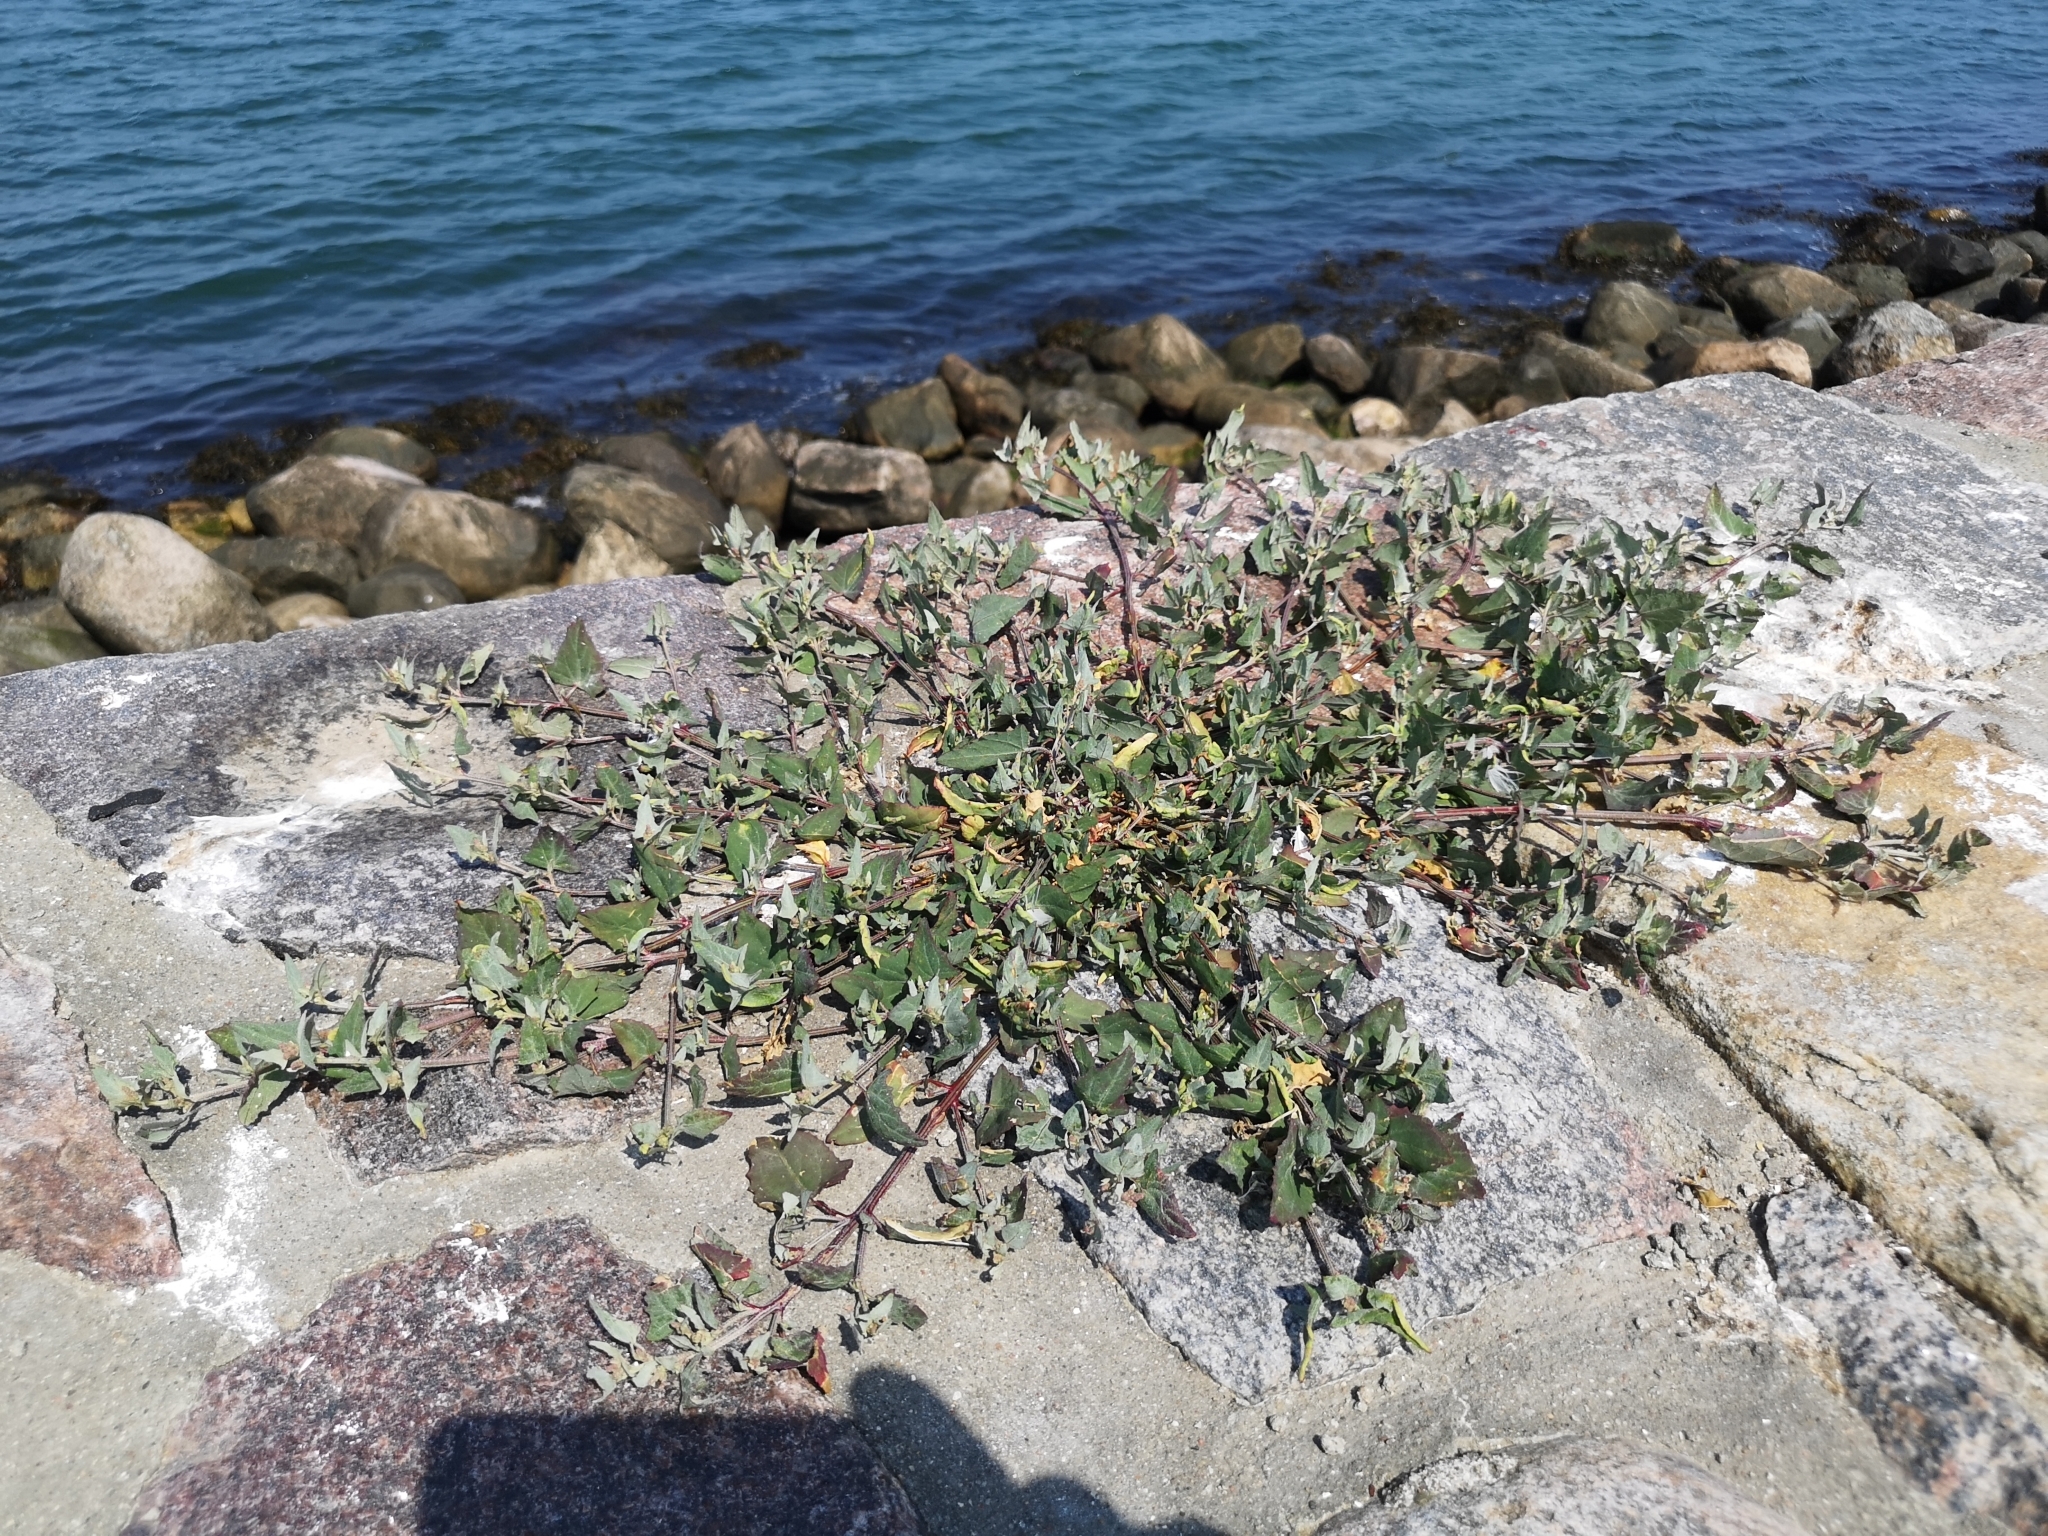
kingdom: Plantae
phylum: Tracheophyta
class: Magnoliopsida
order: Caryophyllales
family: Amaranthaceae
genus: Atriplex
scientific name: Atriplex prostrata
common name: Spear-leaved orache
